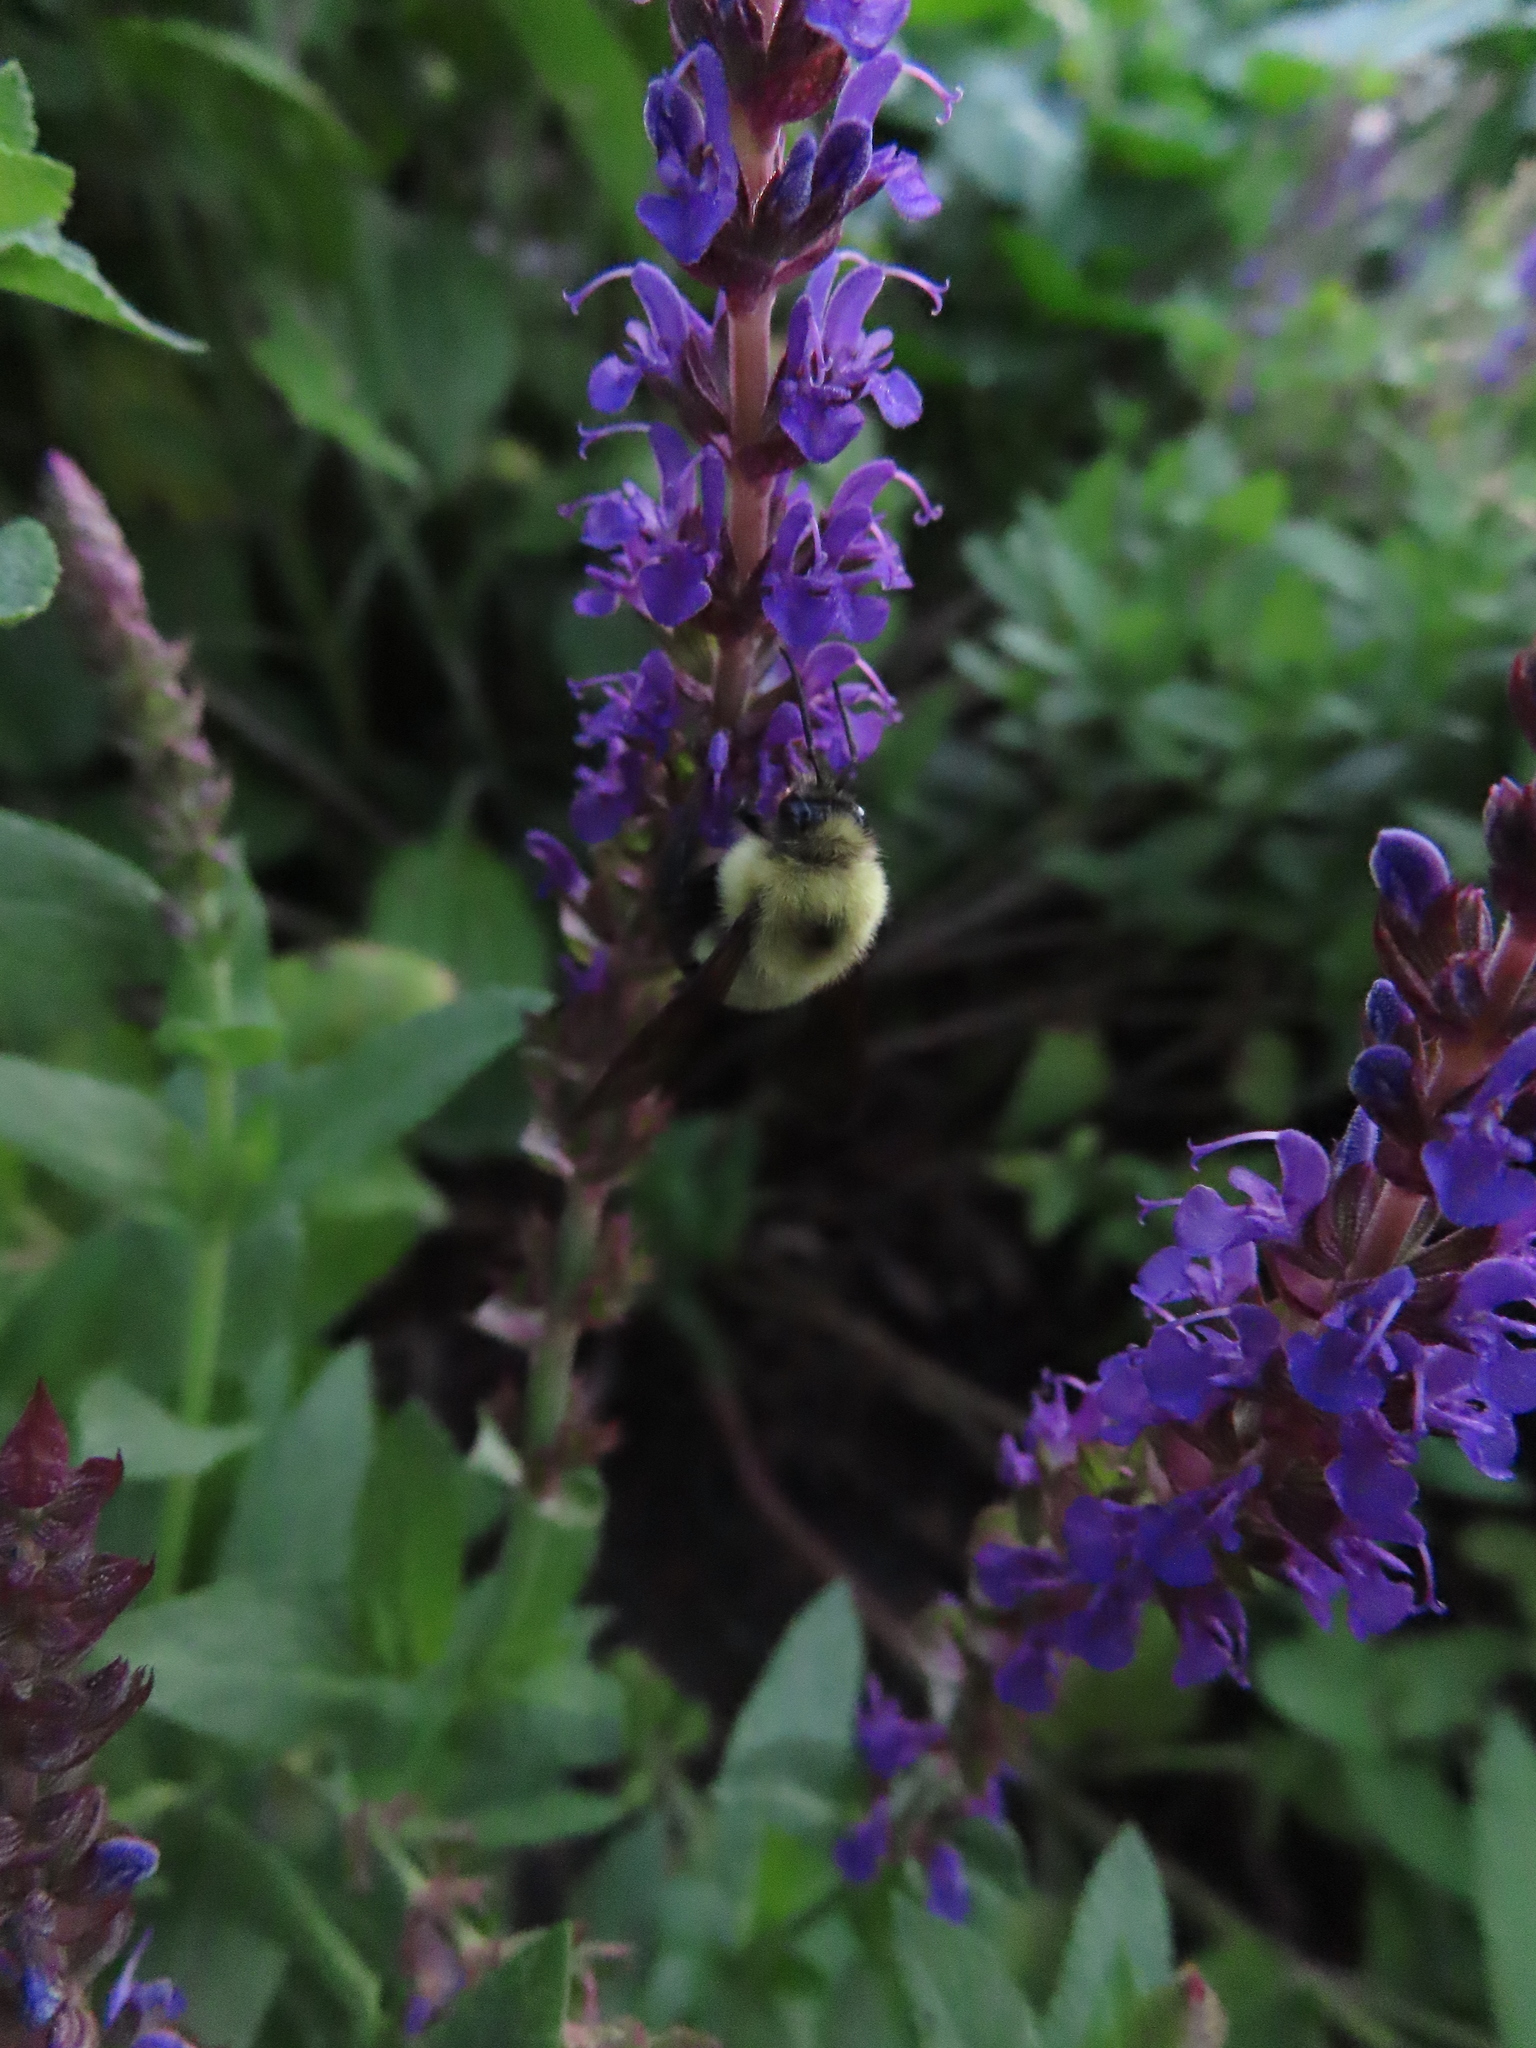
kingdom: Animalia
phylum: Arthropoda
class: Insecta
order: Hymenoptera
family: Apidae
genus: Bombus
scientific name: Bombus bimaculatus
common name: Two-spotted bumble bee
